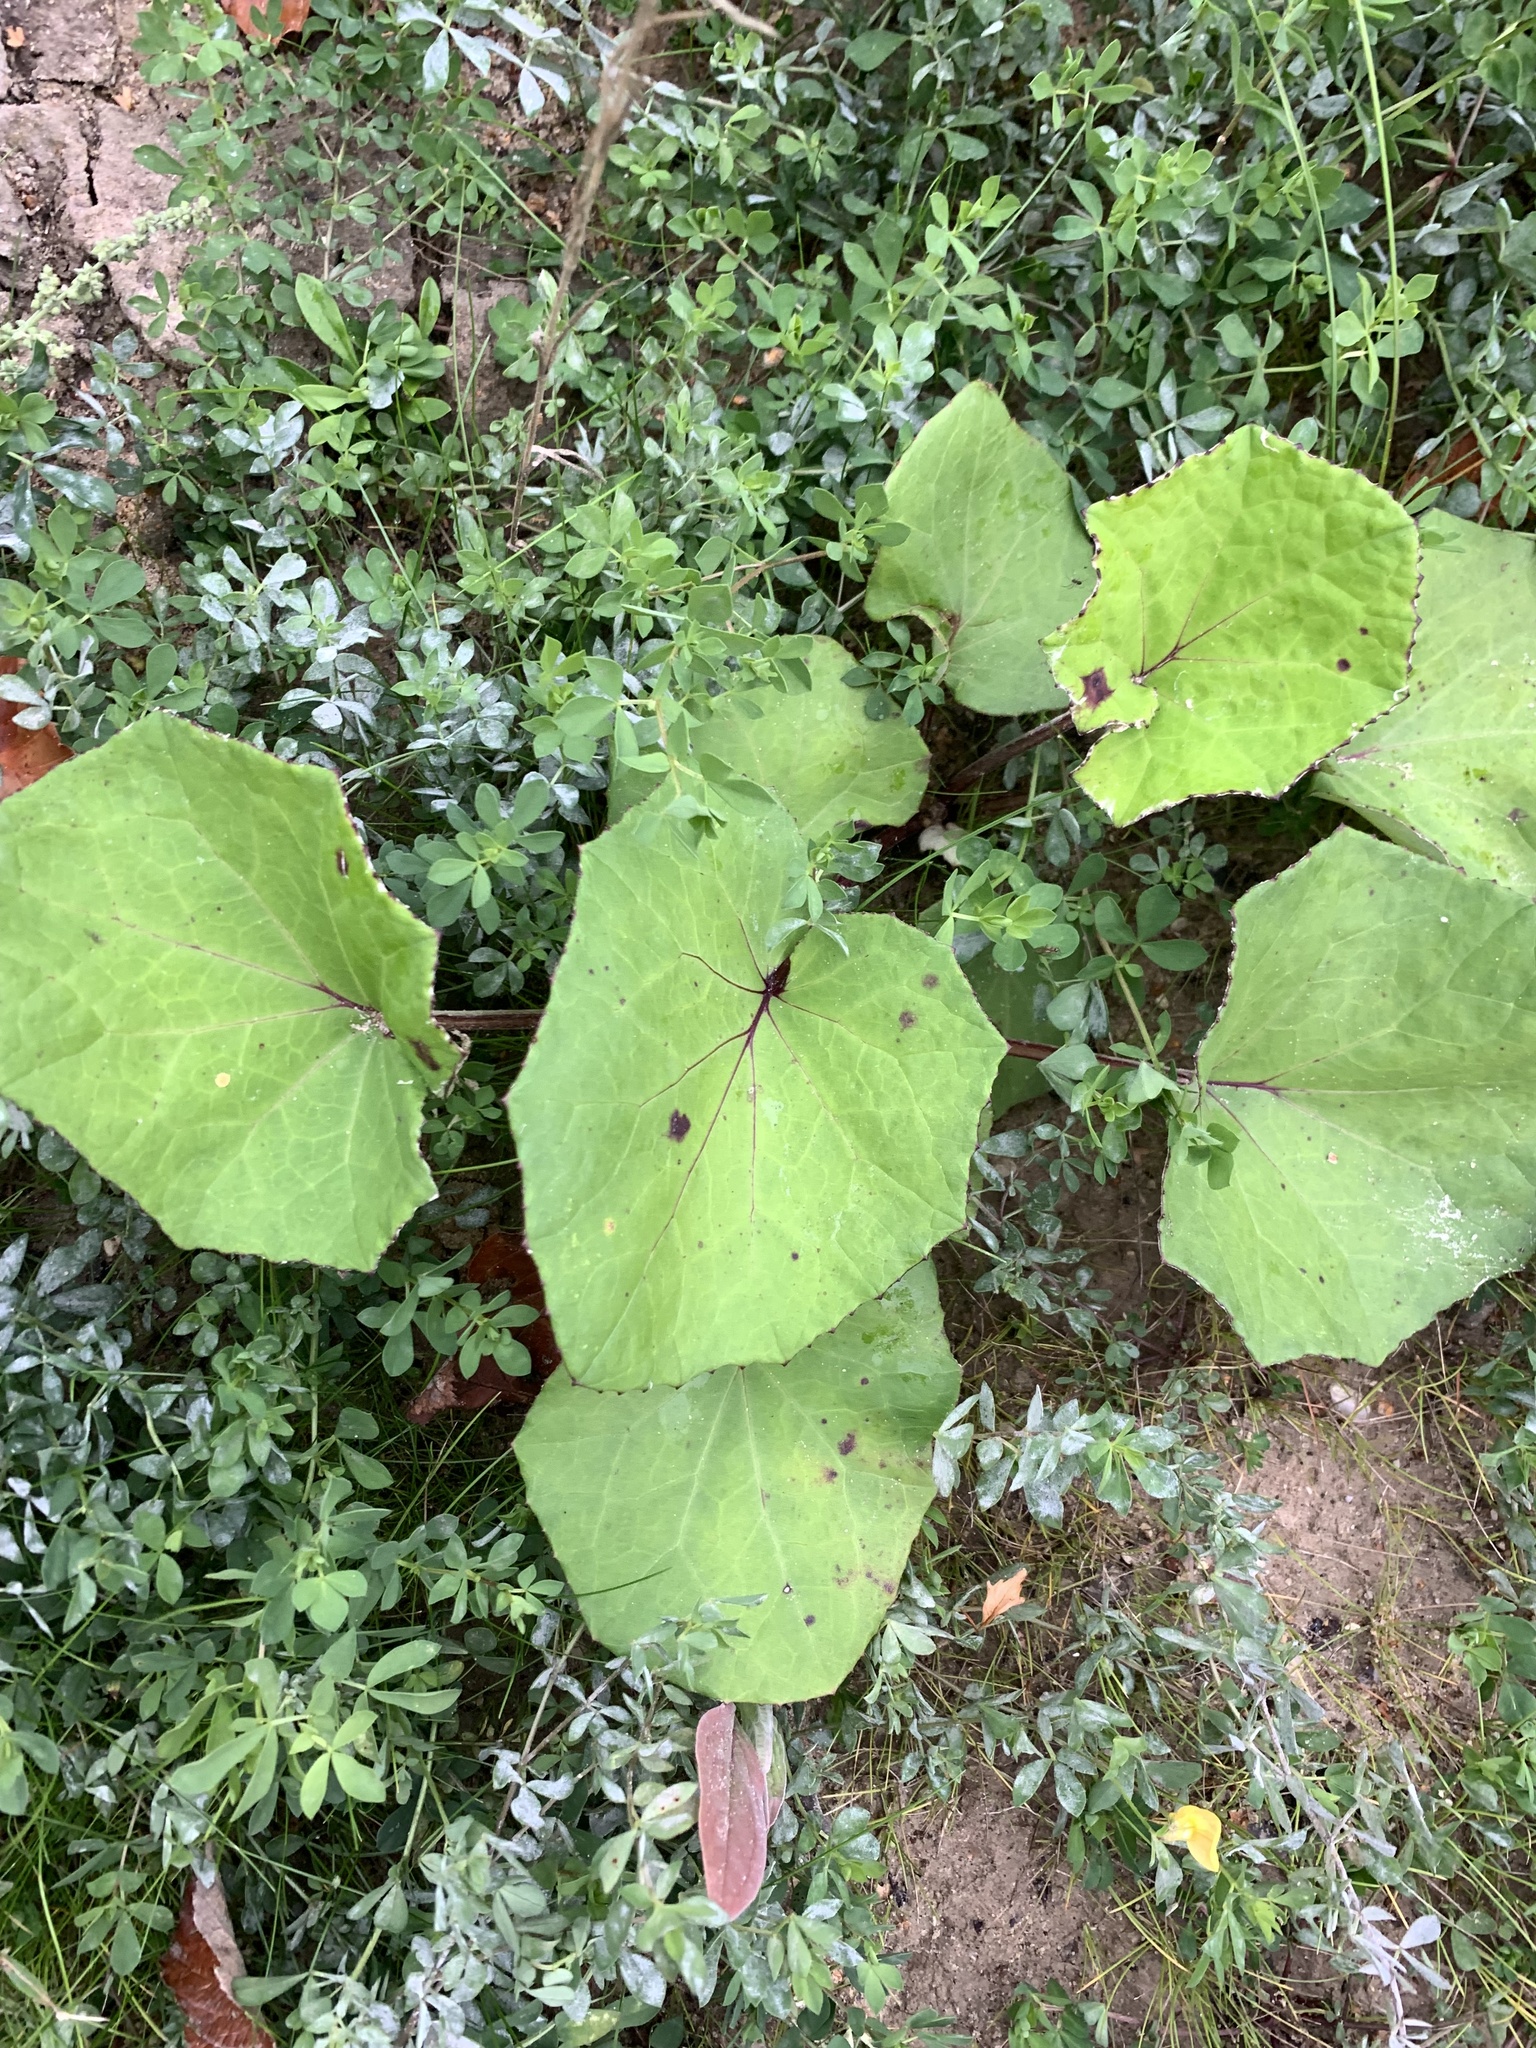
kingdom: Plantae
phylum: Tracheophyta
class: Magnoliopsida
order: Asterales
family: Asteraceae
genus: Tussilago
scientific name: Tussilago farfara
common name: Coltsfoot
